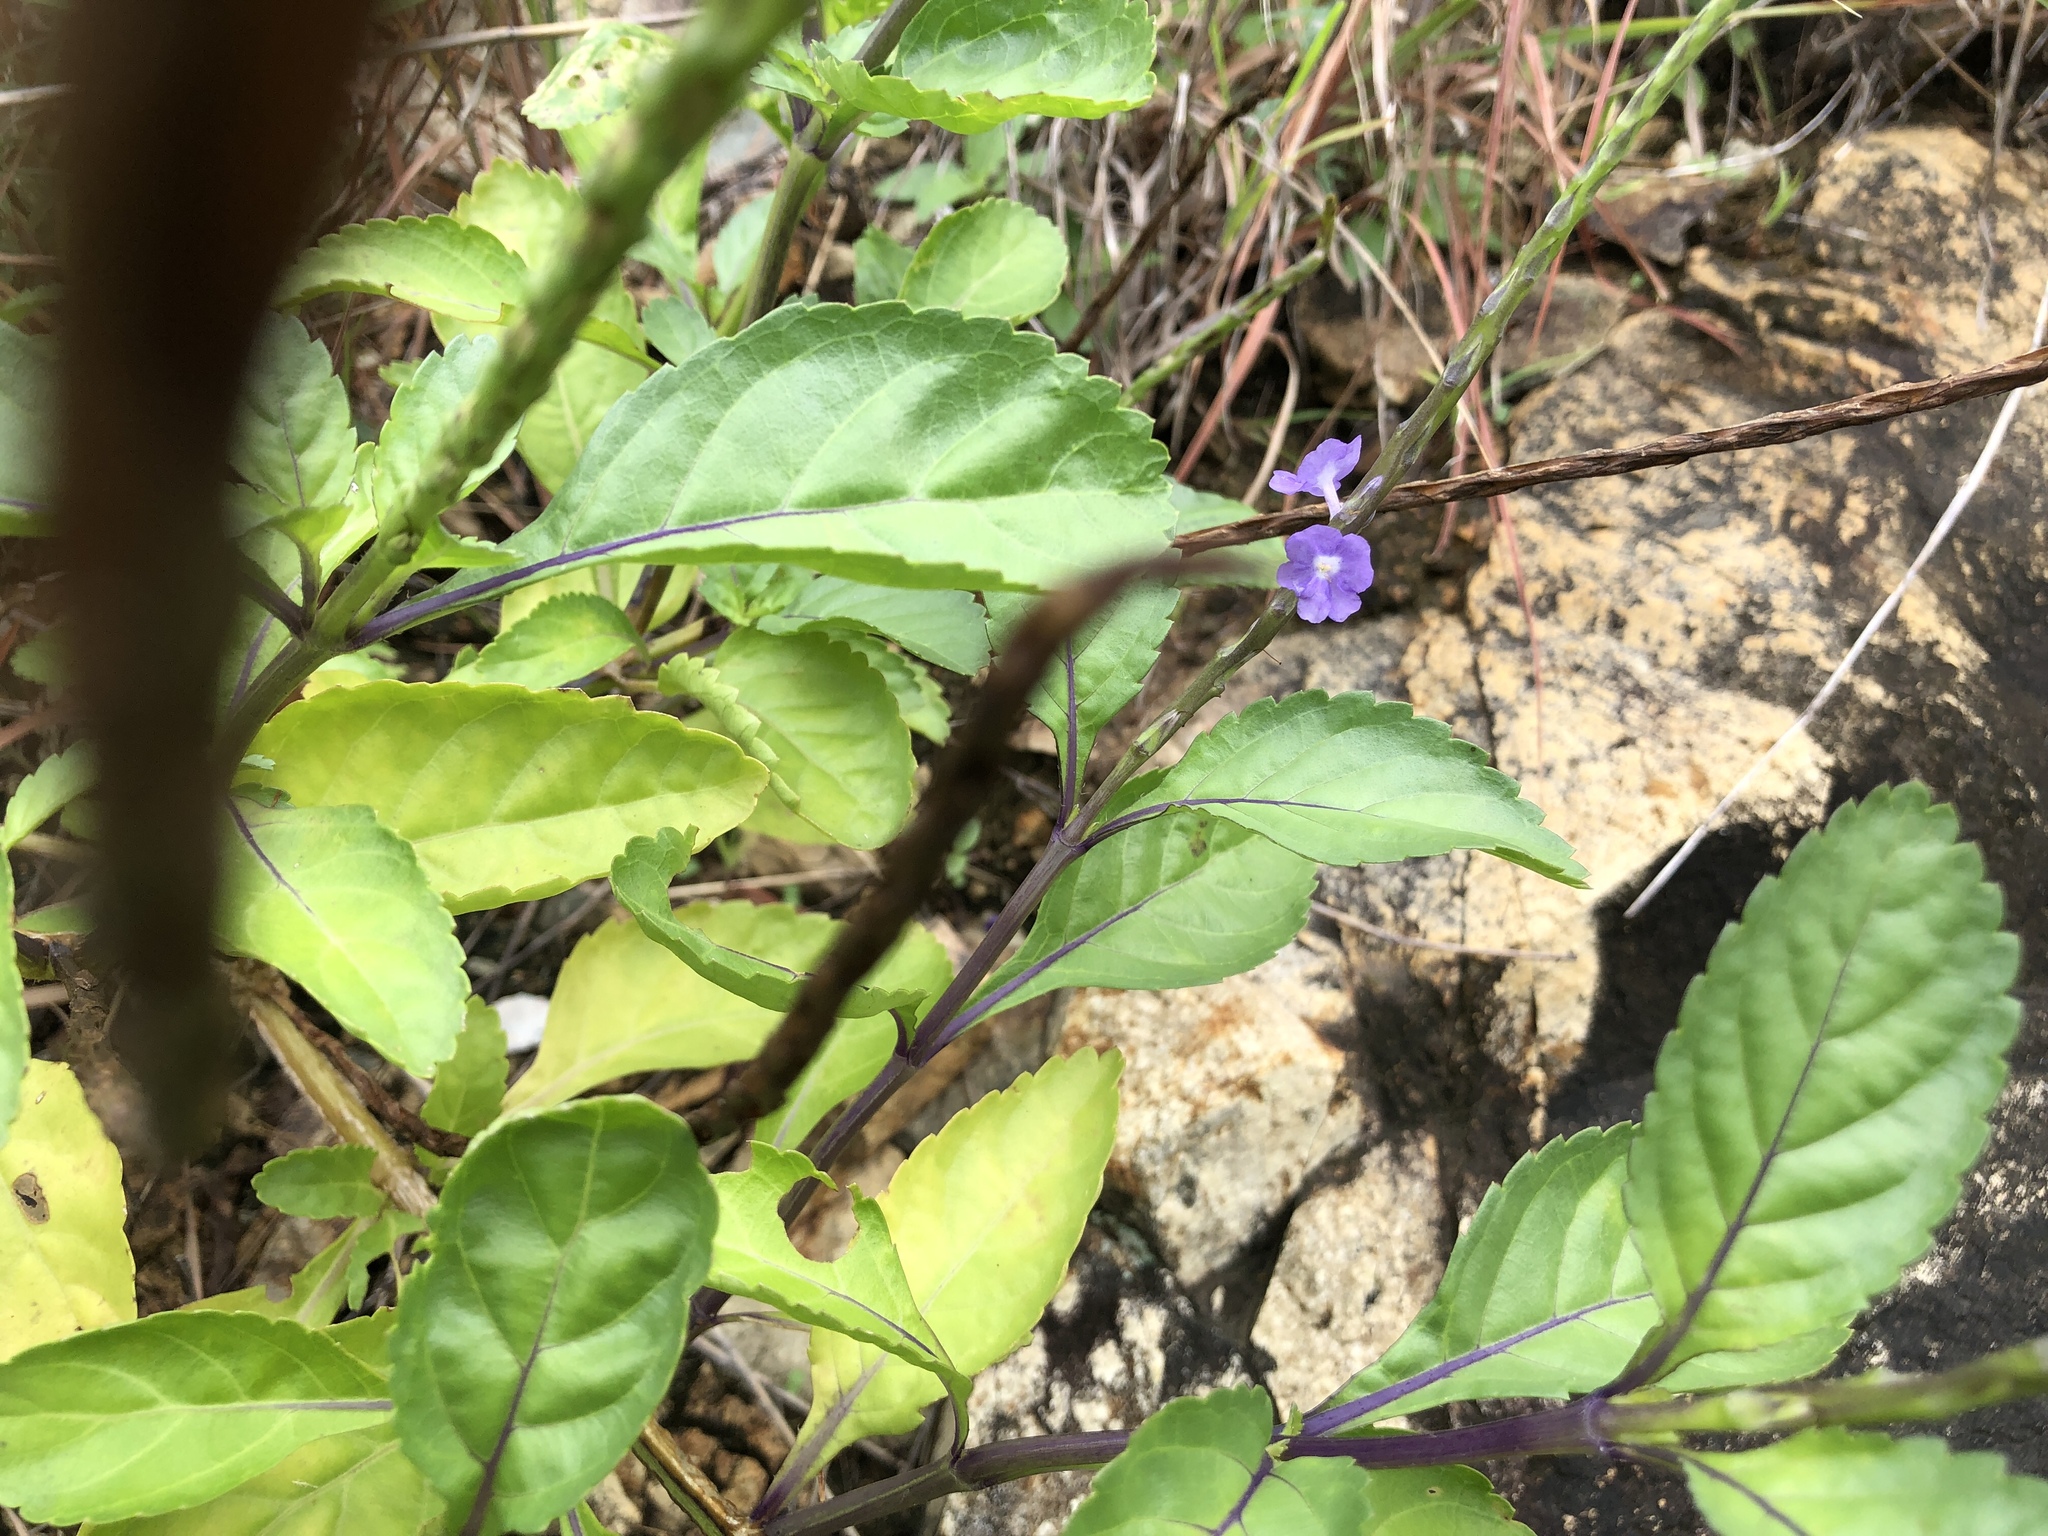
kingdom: Plantae
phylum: Tracheophyta
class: Magnoliopsida
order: Lamiales
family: Verbenaceae
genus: Stachytarpheta
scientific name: Stachytarpheta jamaicensis
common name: Light-blue snakeweed
